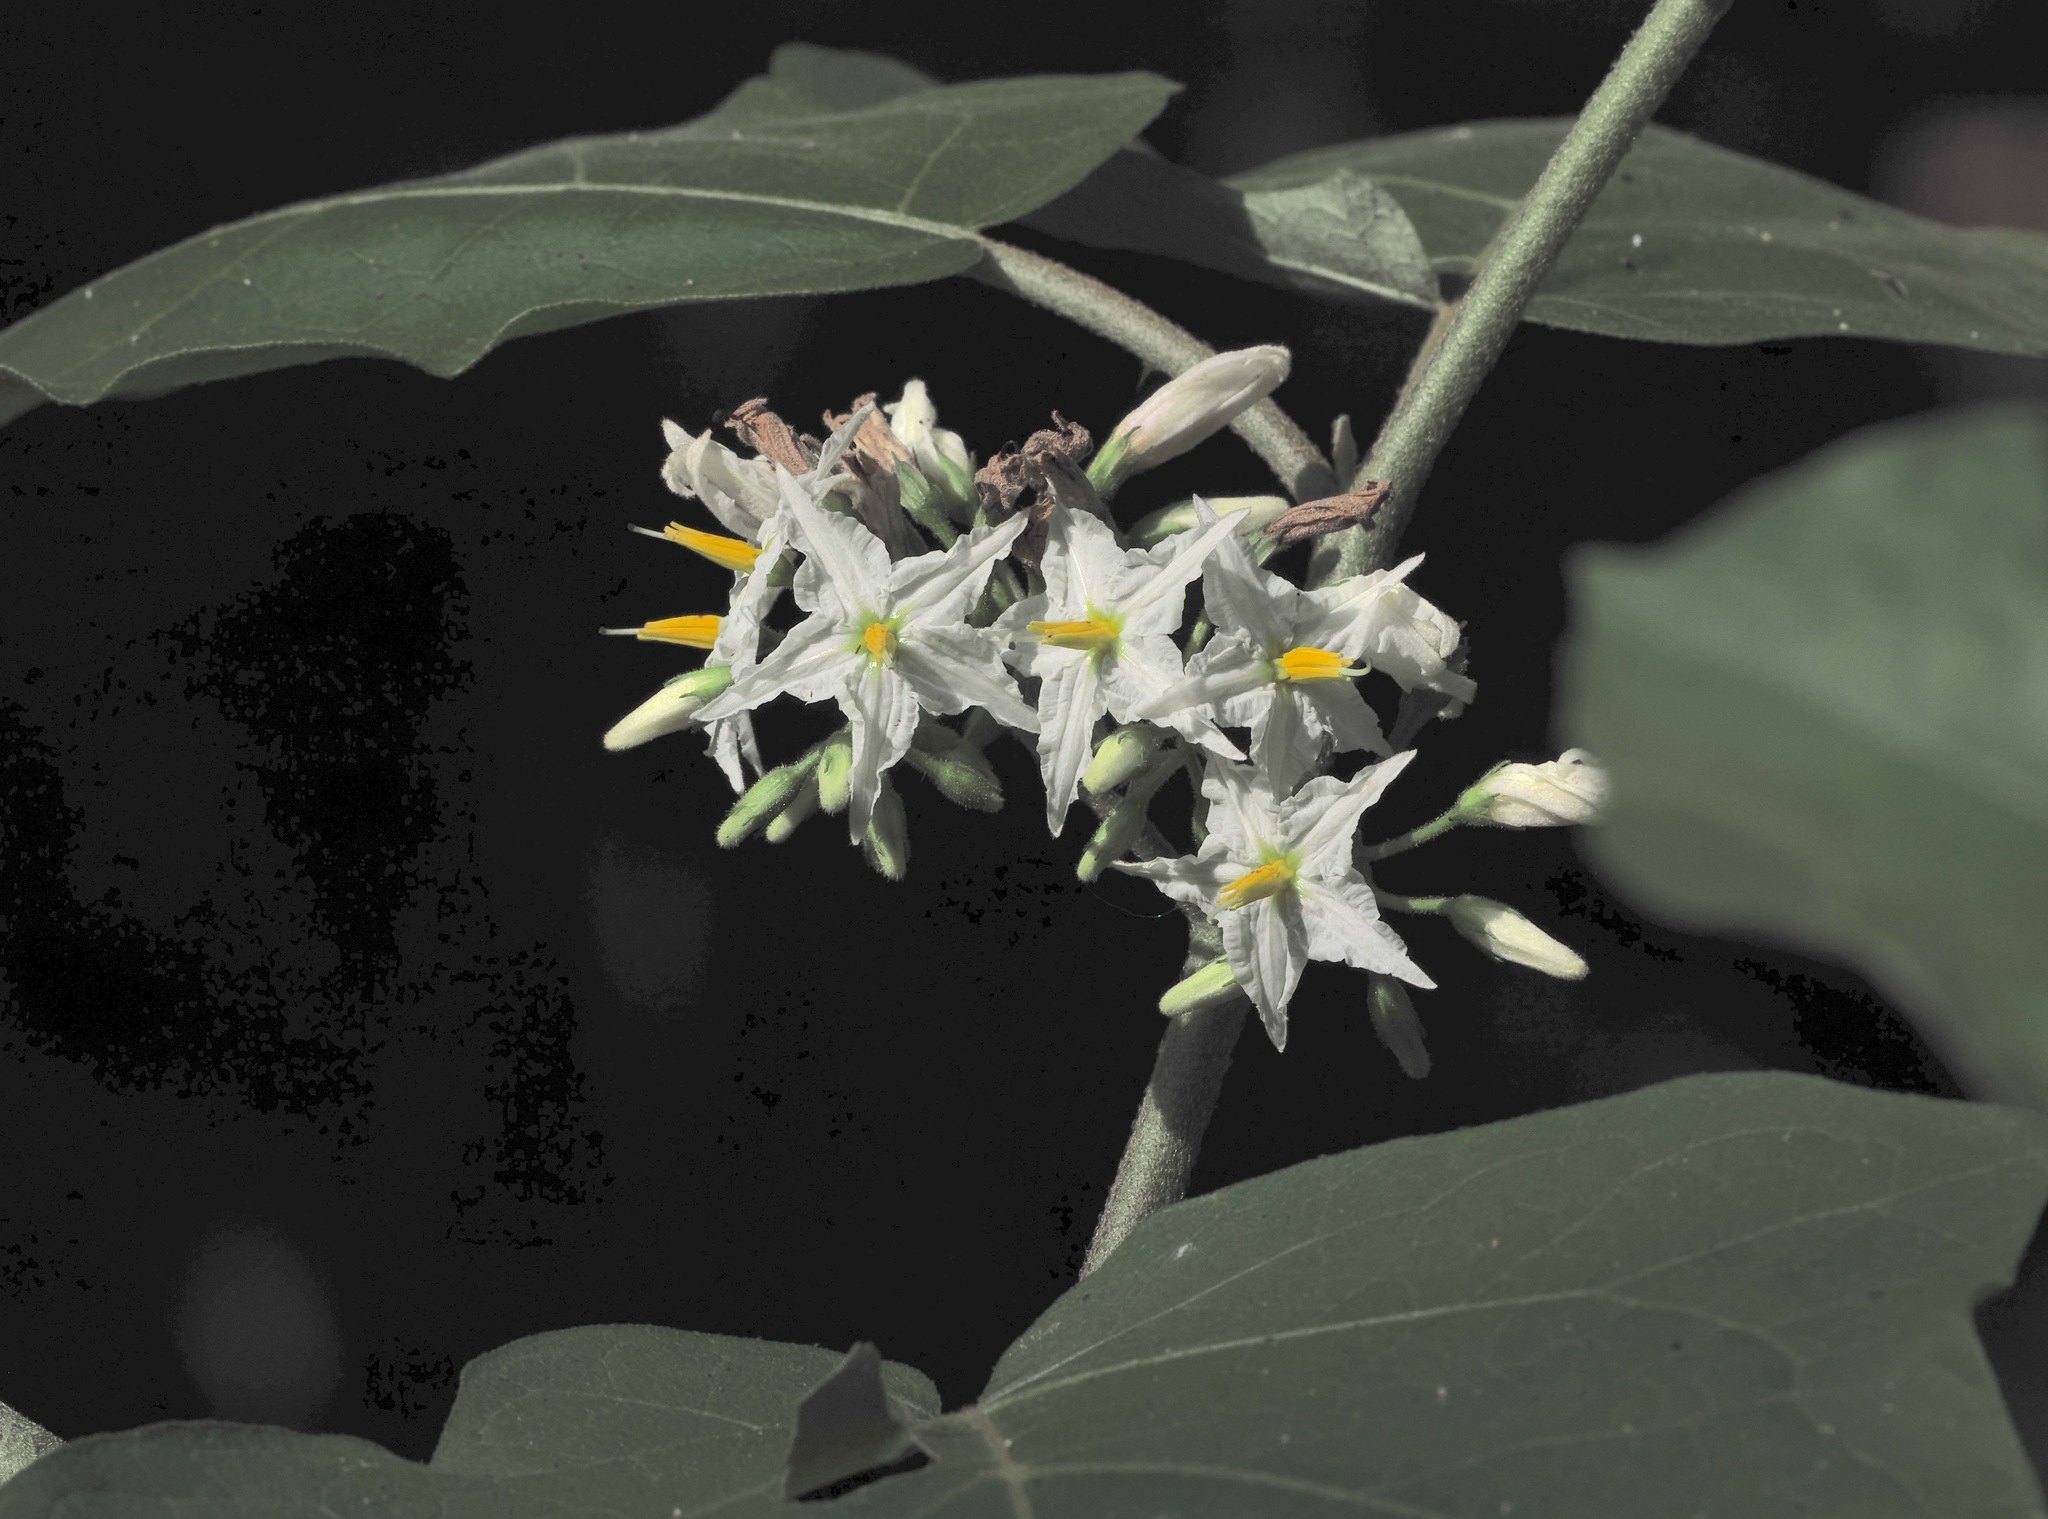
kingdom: Plantae
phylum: Tracheophyta
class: Magnoliopsida
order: Solanales
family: Solanaceae
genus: Solanum
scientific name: Solanum torvum
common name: Turkey berry
